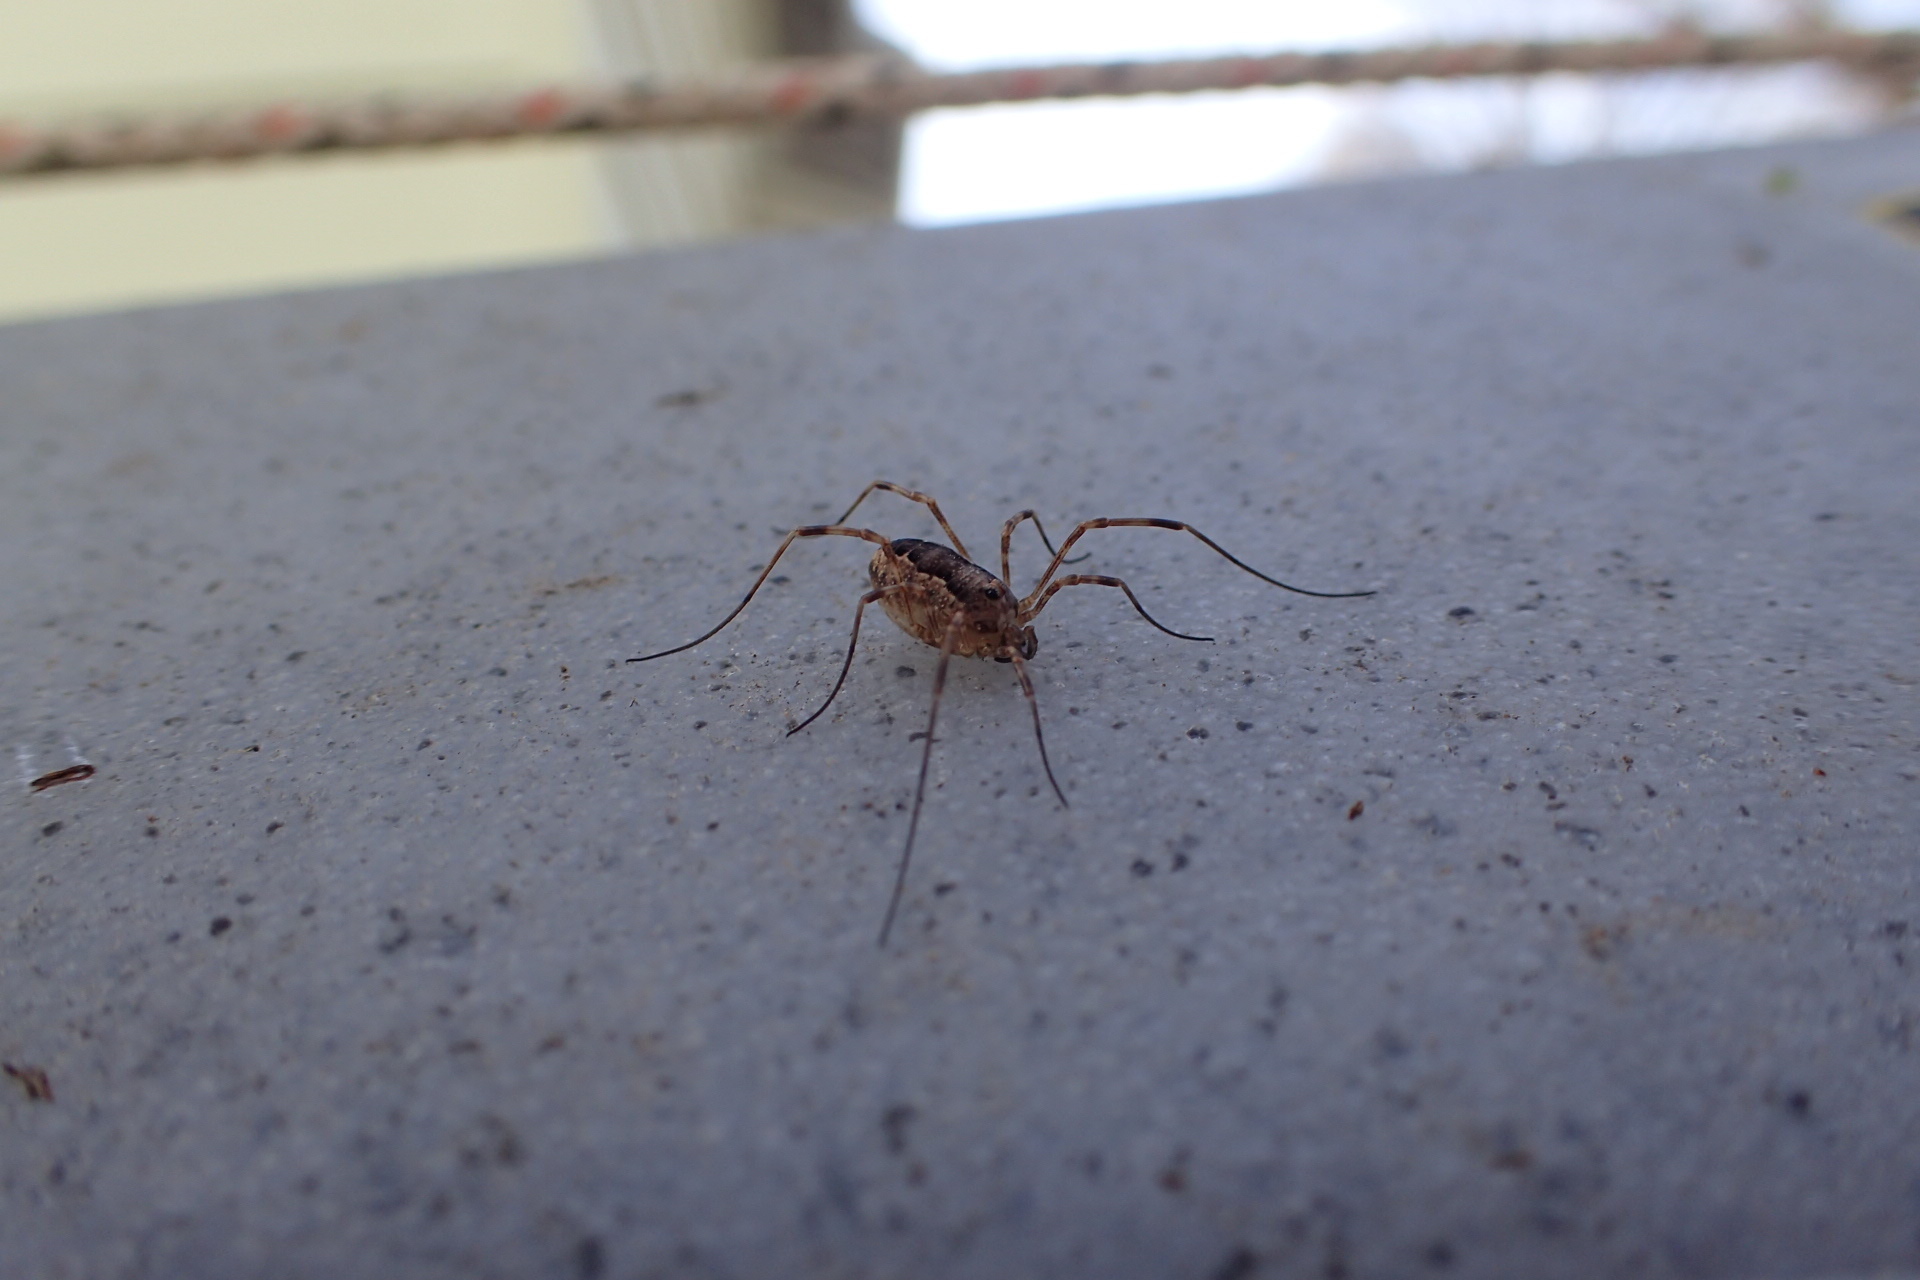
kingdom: Animalia
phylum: Arthropoda
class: Arachnida
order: Opiliones
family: Phalangiidae
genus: Rilaena
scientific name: Rilaena triangularis
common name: Spring harvestman
